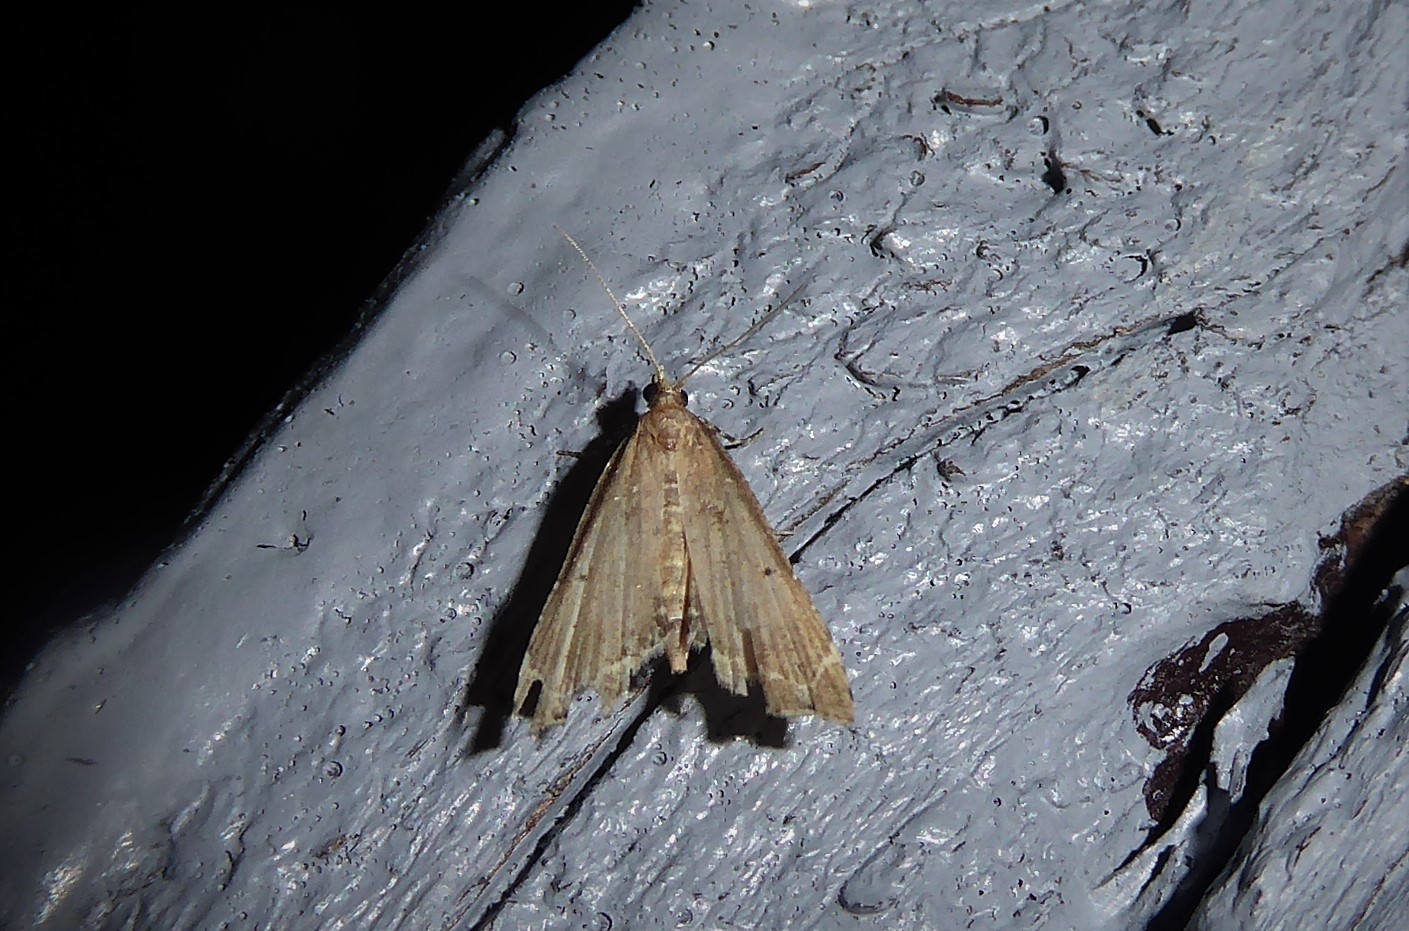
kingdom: Animalia
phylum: Arthropoda
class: Insecta
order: Lepidoptera
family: Crambidae
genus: Diplopseustis
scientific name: Diplopseustis perieresalis
